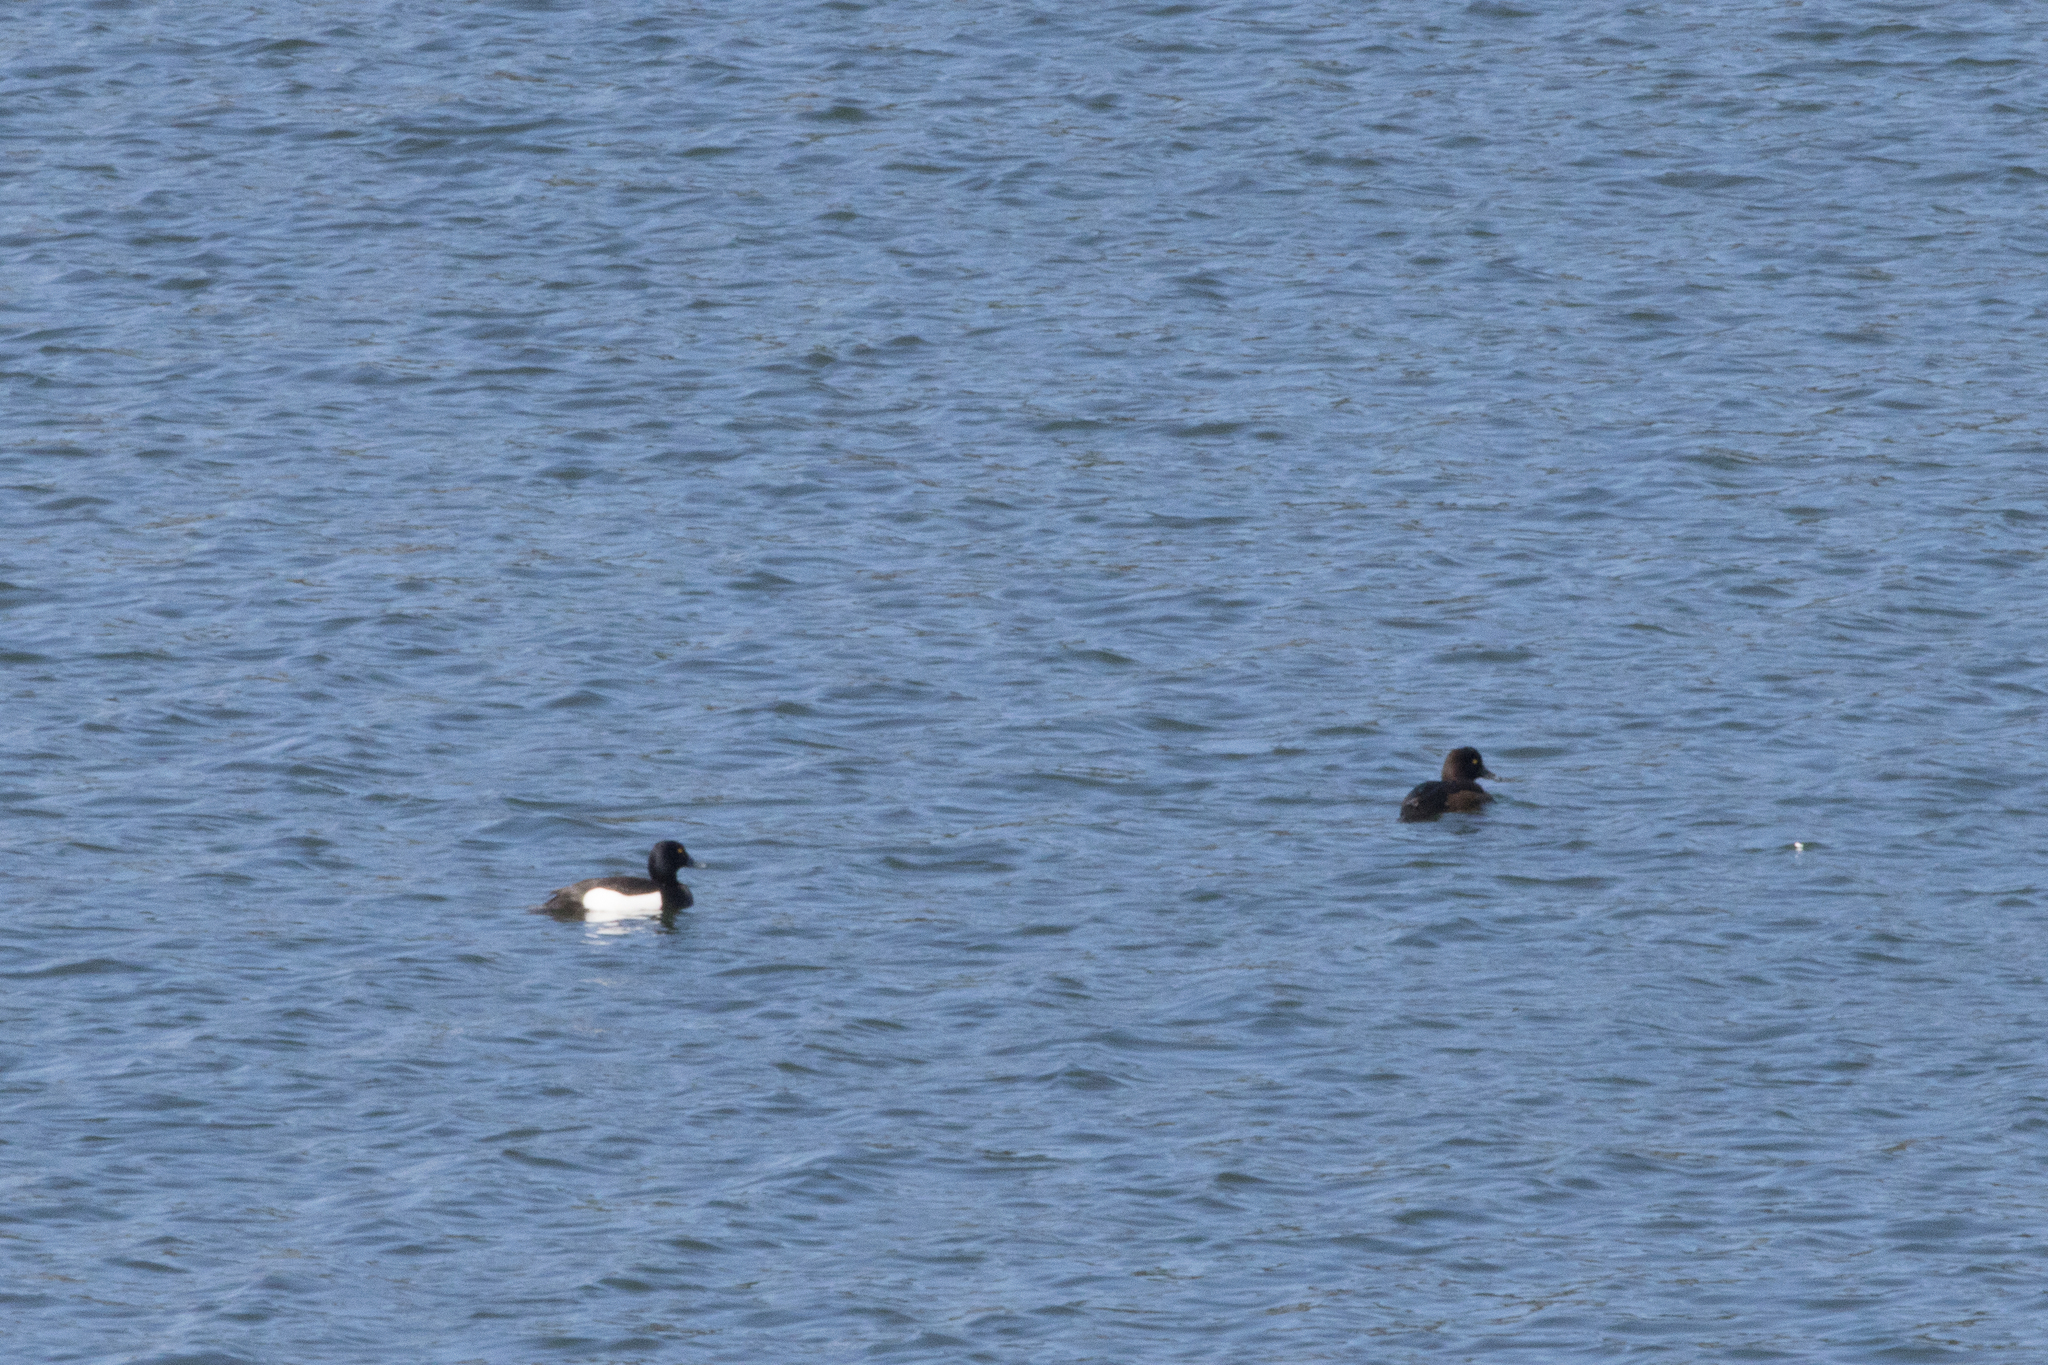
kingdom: Animalia
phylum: Chordata
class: Aves
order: Anseriformes
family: Anatidae
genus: Aythya
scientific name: Aythya fuligula
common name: Tufted duck
